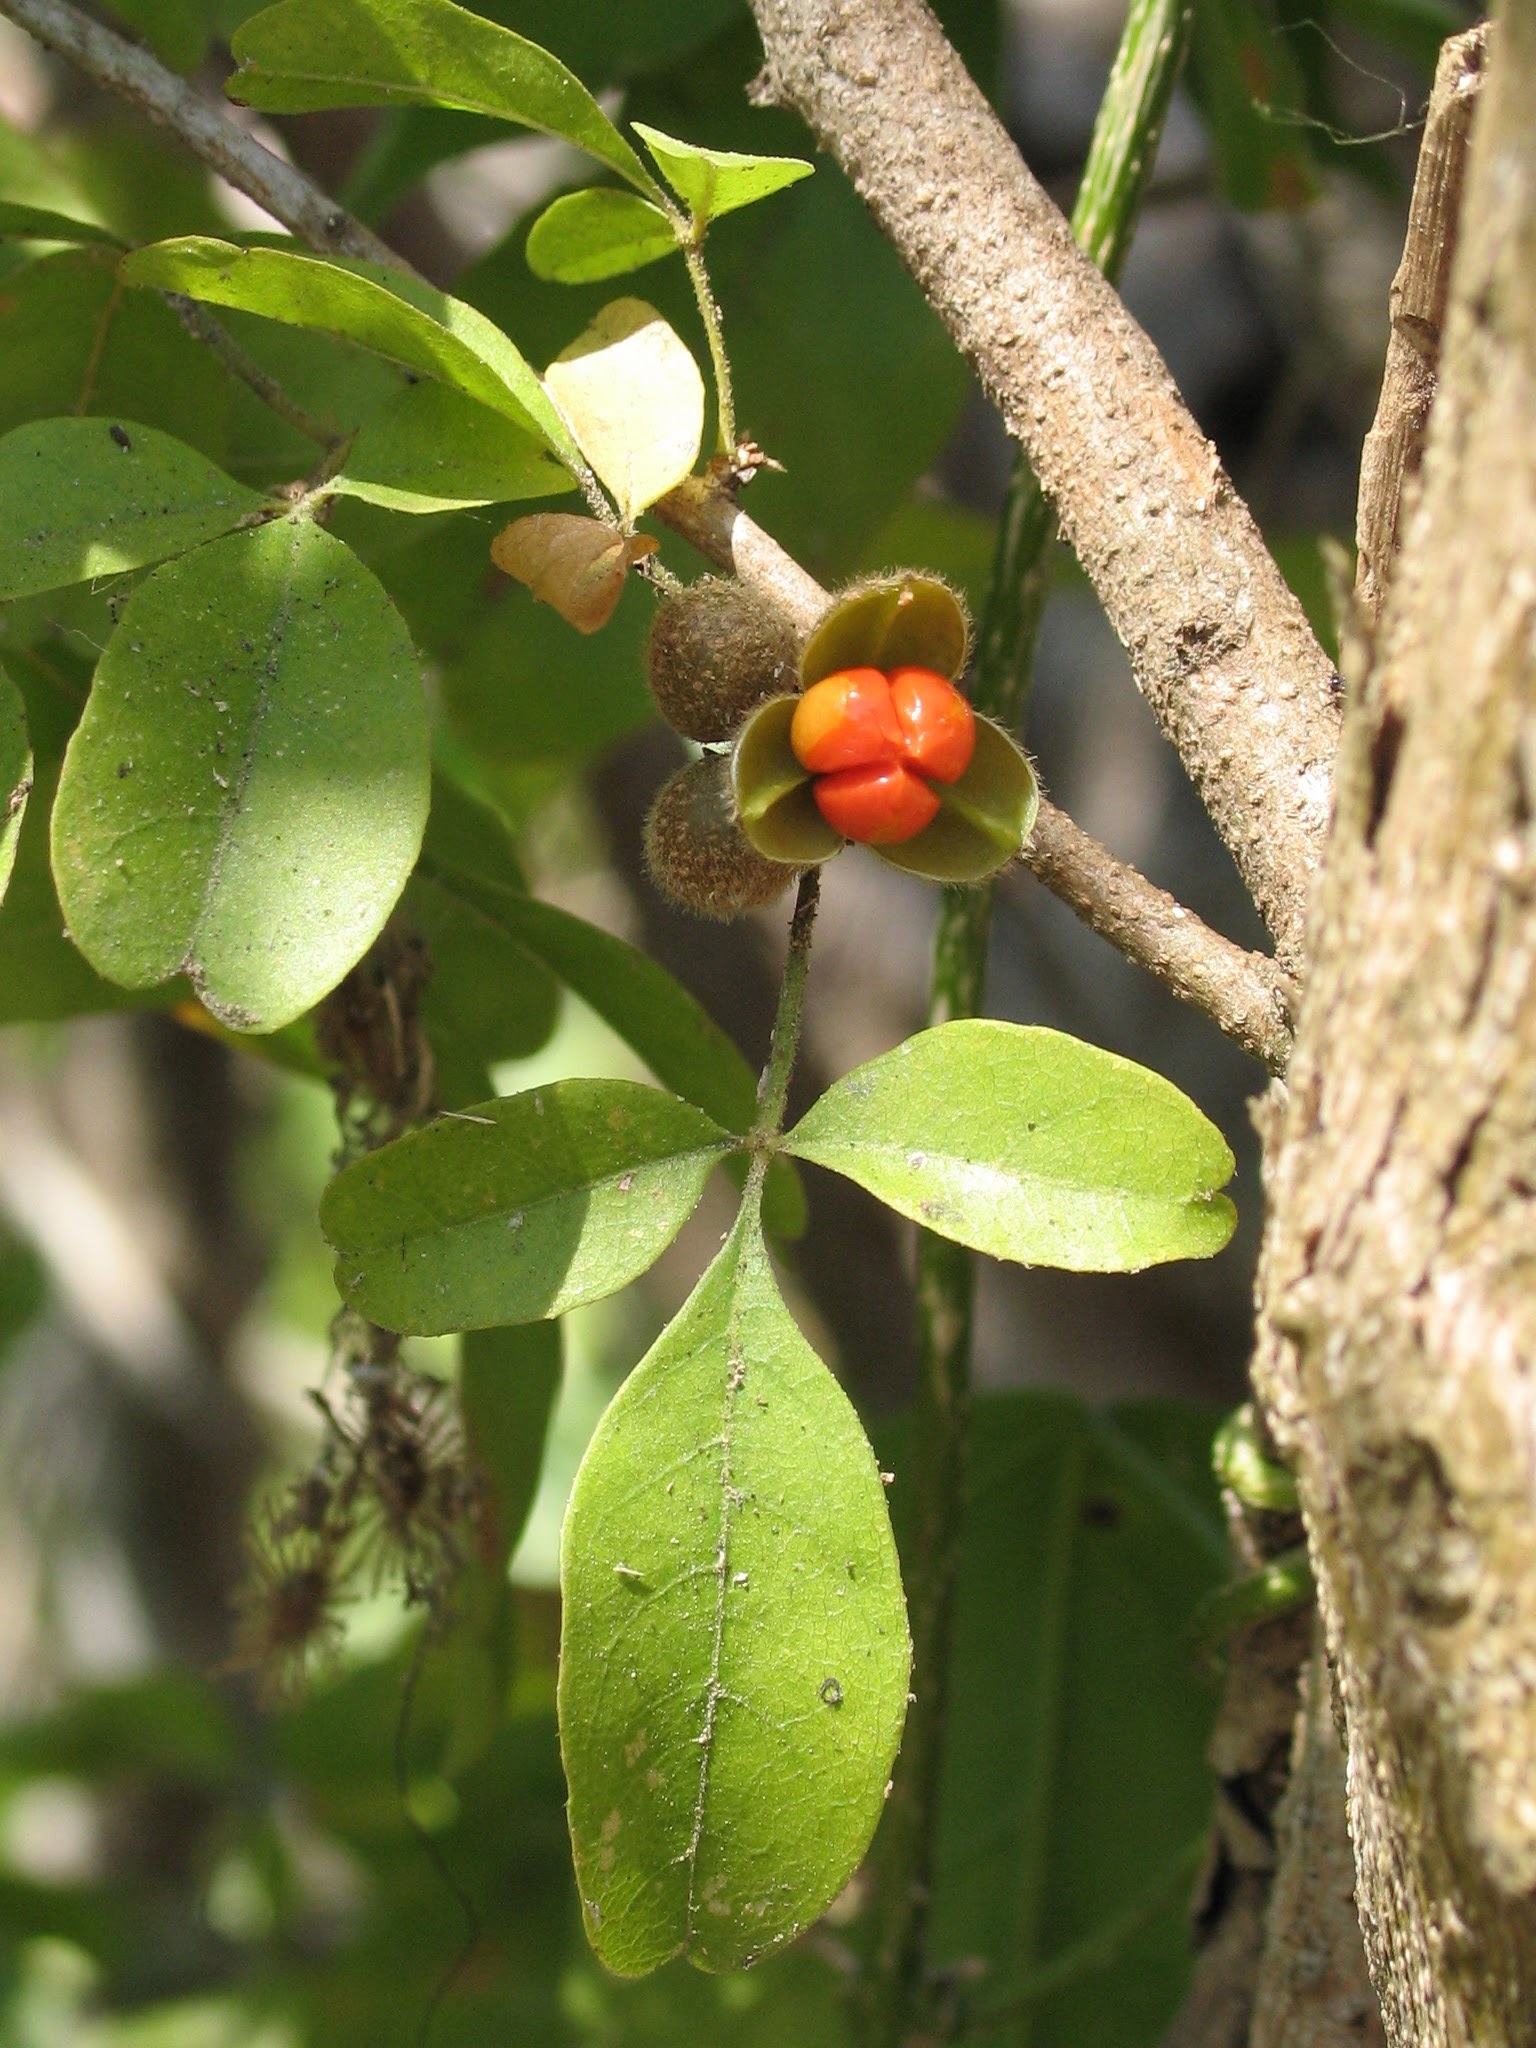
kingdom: Plantae
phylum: Tracheophyta
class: Magnoliopsida
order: Sapindales
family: Meliaceae
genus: Trichilia
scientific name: Trichilia trifolia
